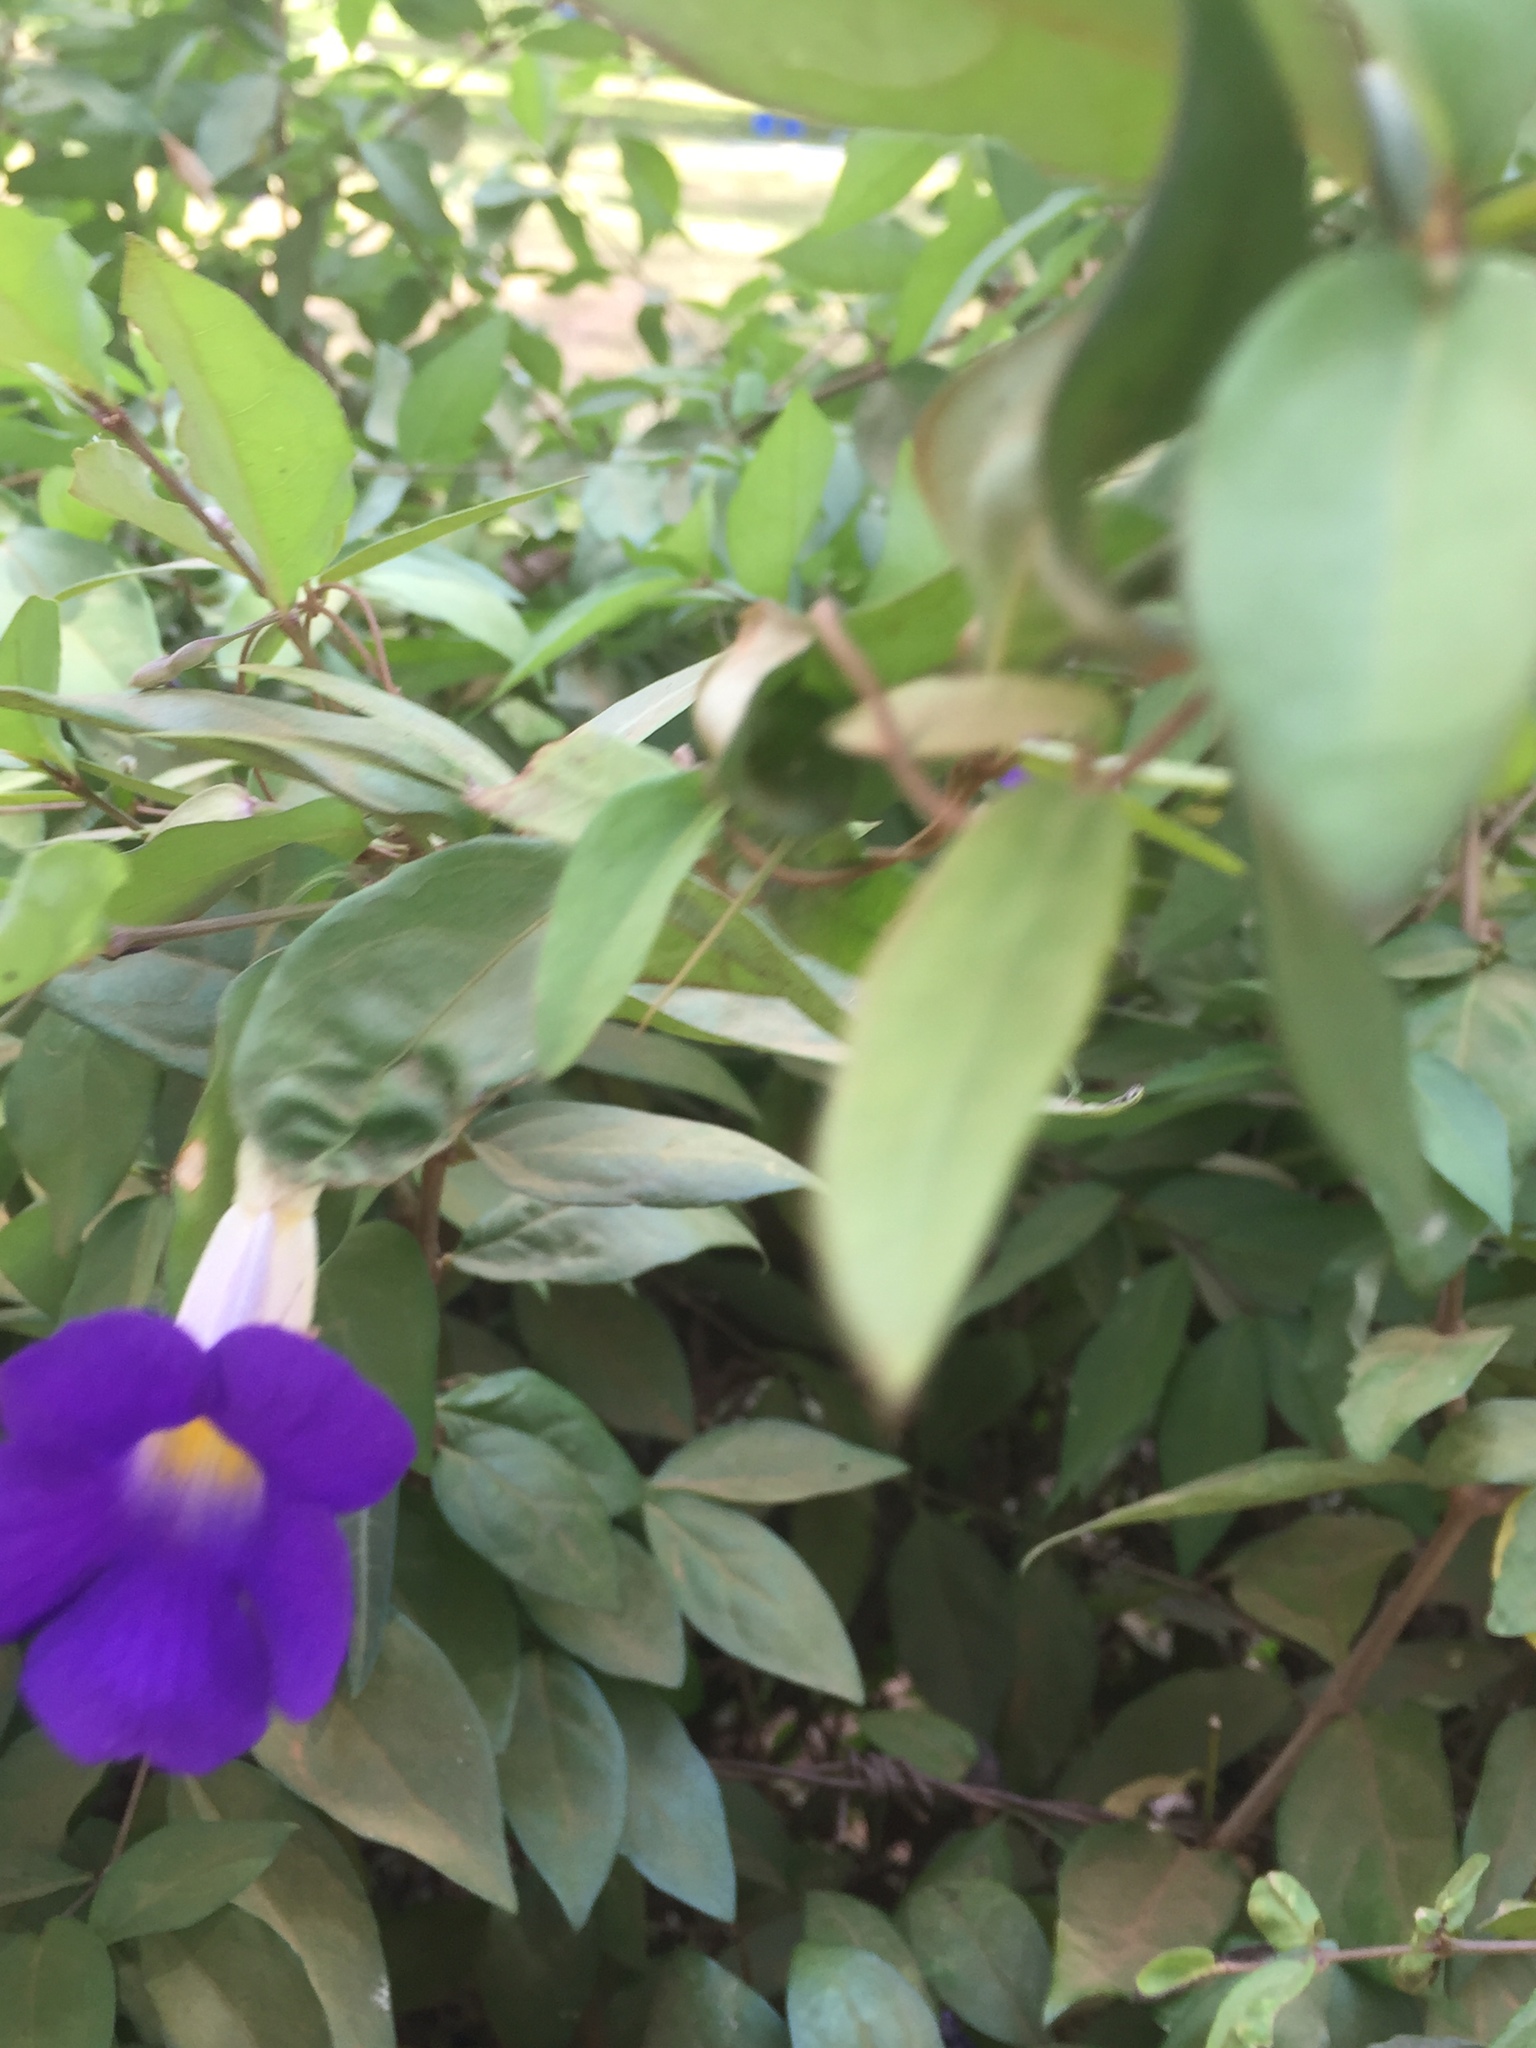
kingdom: Plantae
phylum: Tracheophyta
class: Magnoliopsida
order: Lamiales
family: Acanthaceae
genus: Thunbergia
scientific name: Thunbergia erecta
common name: Bush clockvine
